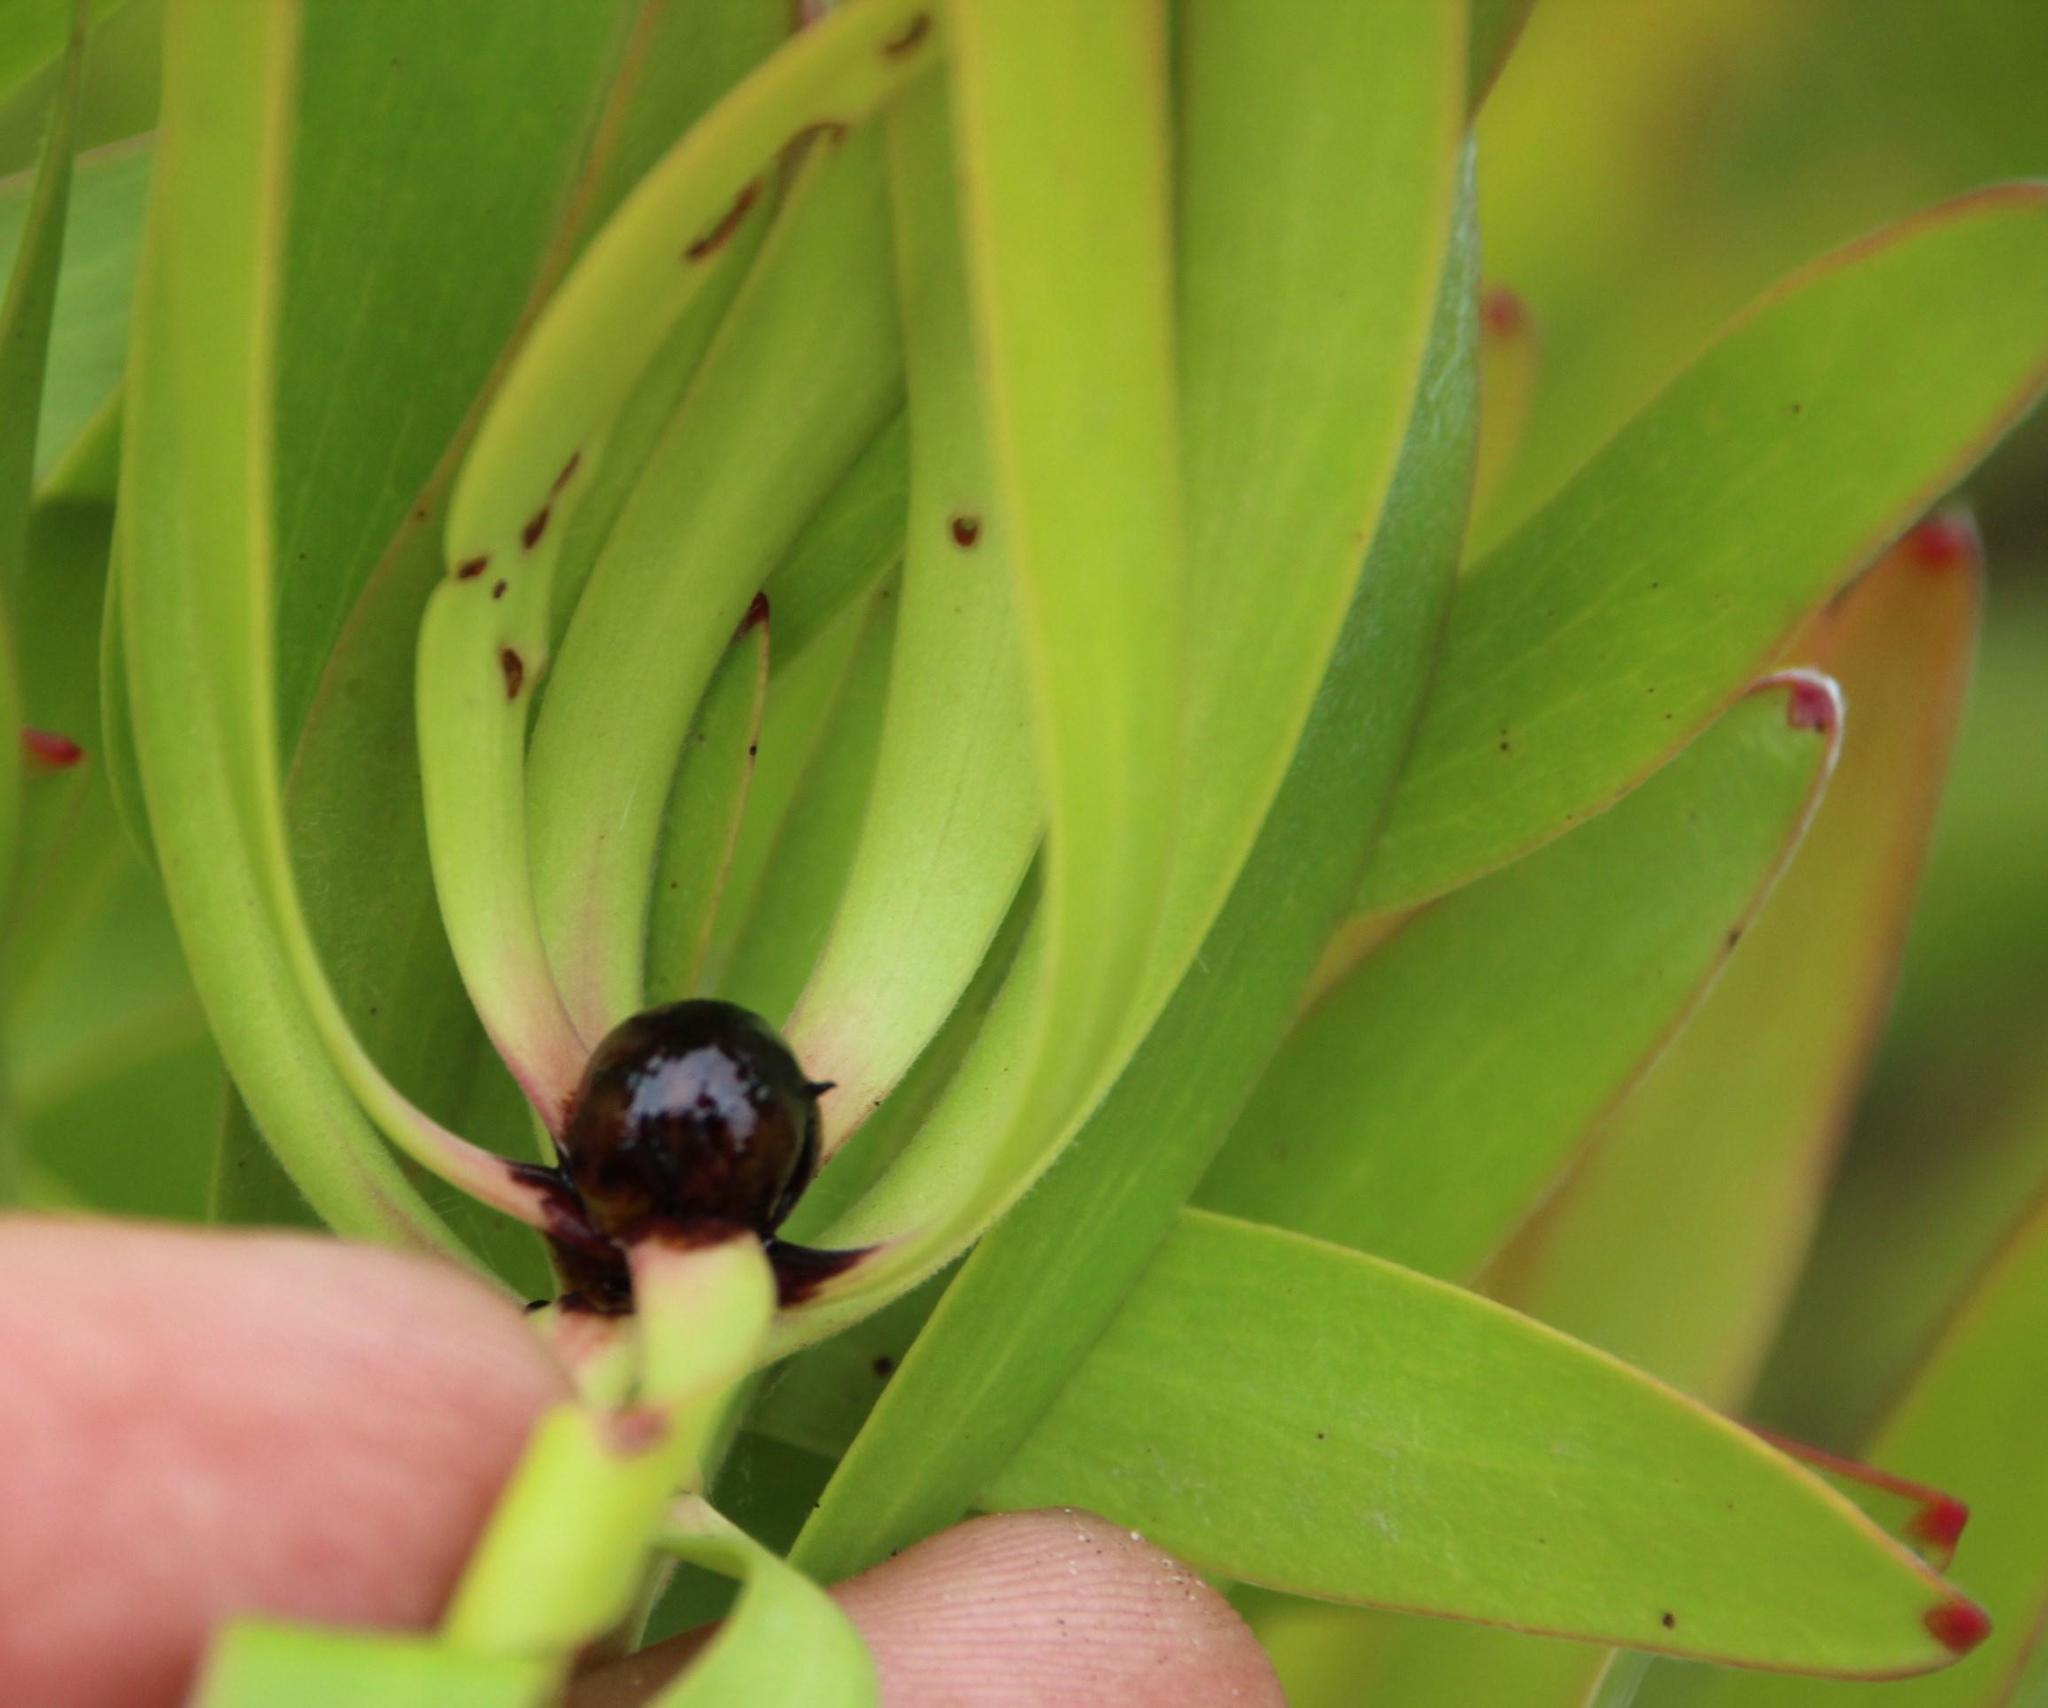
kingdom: Plantae
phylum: Tracheophyta
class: Magnoliopsida
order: Proteales
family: Proteaceae
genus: Leucadendron
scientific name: Leucadendron microcephalum
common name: Oilbract conebush
